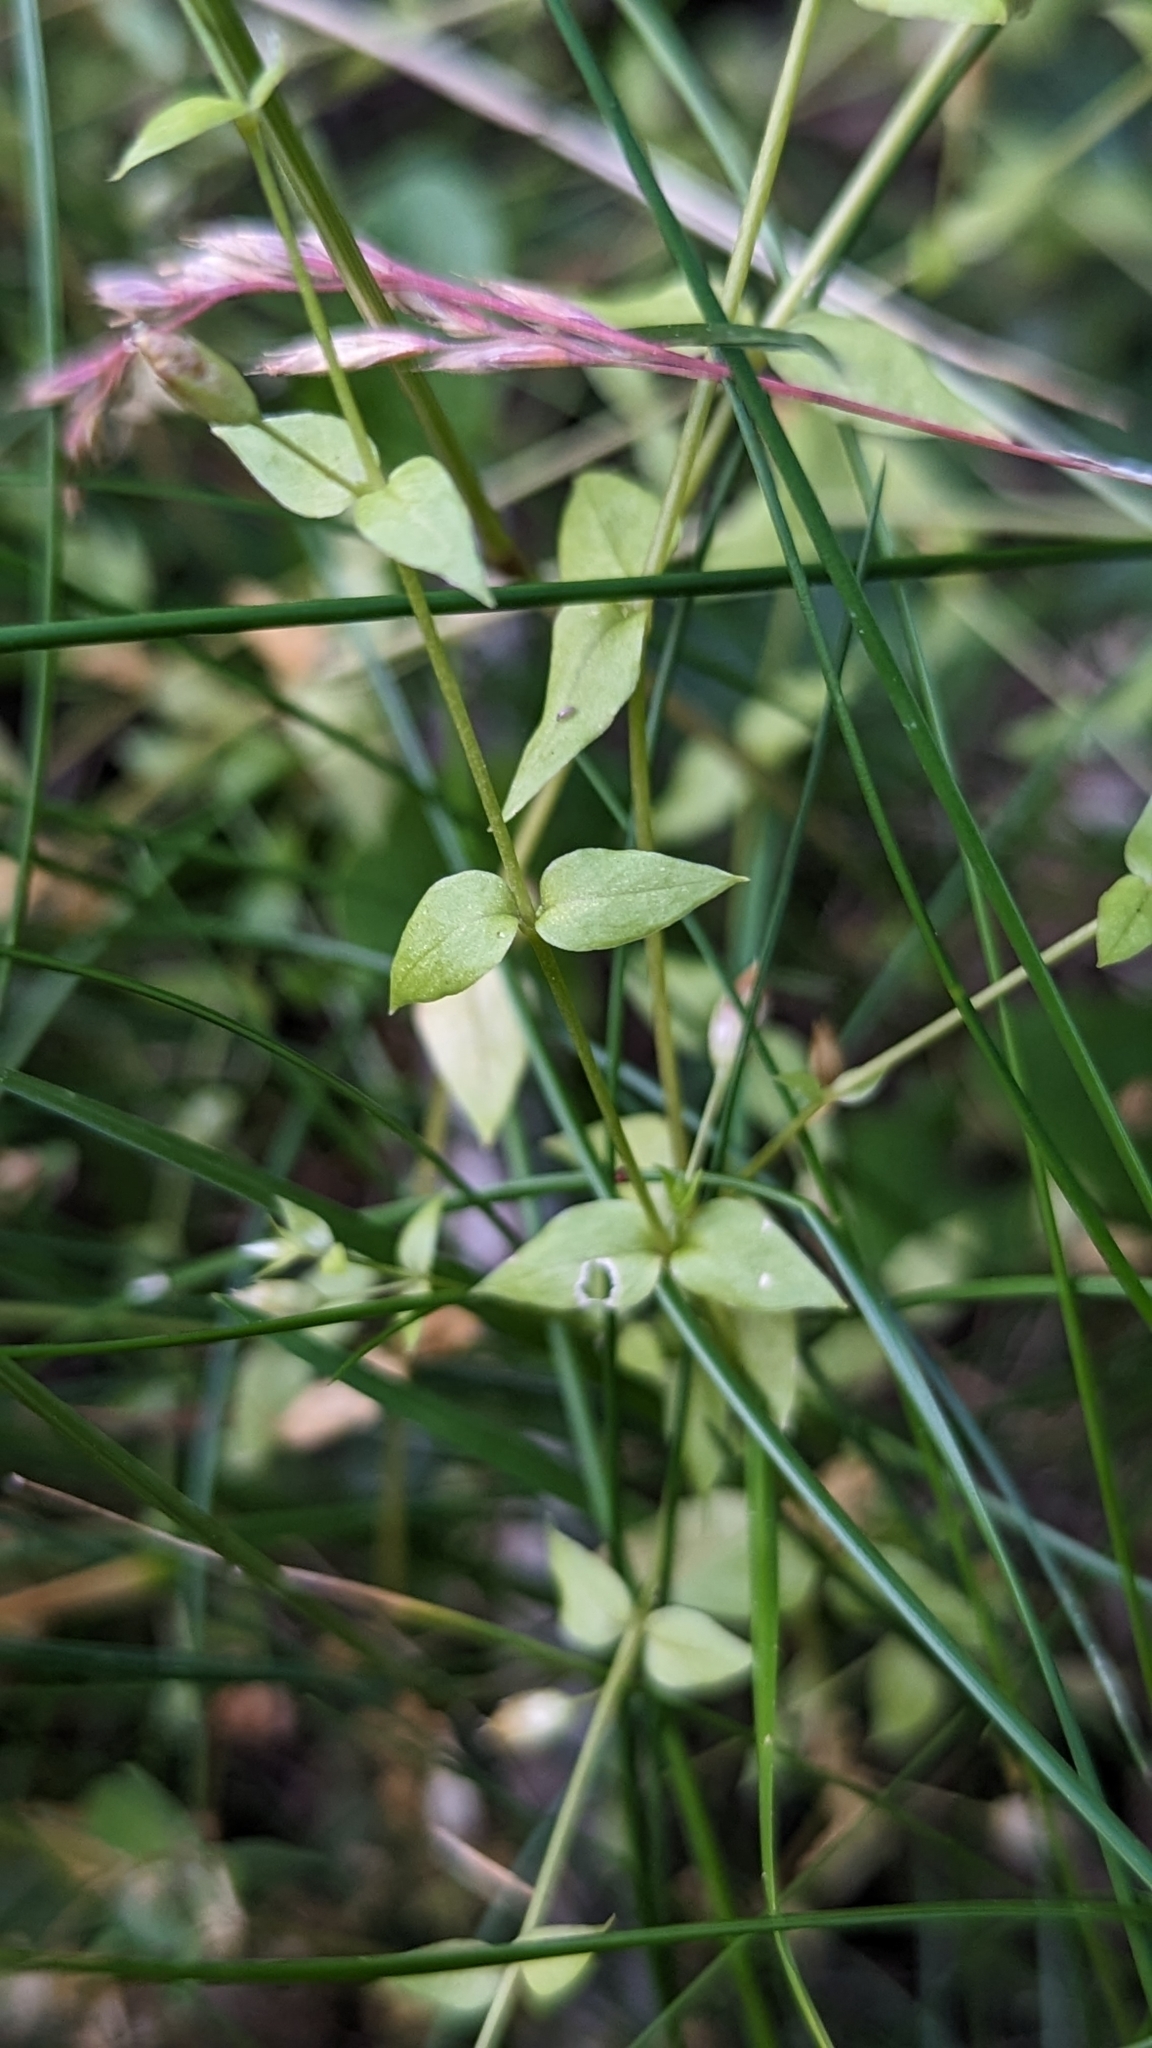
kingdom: Plantae
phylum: Tracheophyta
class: Magnoliopsida
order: Caryophyllales
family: Caryophyllaceae
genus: Stellaria
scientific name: Stellaria crispa
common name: Crimped stitchwort
